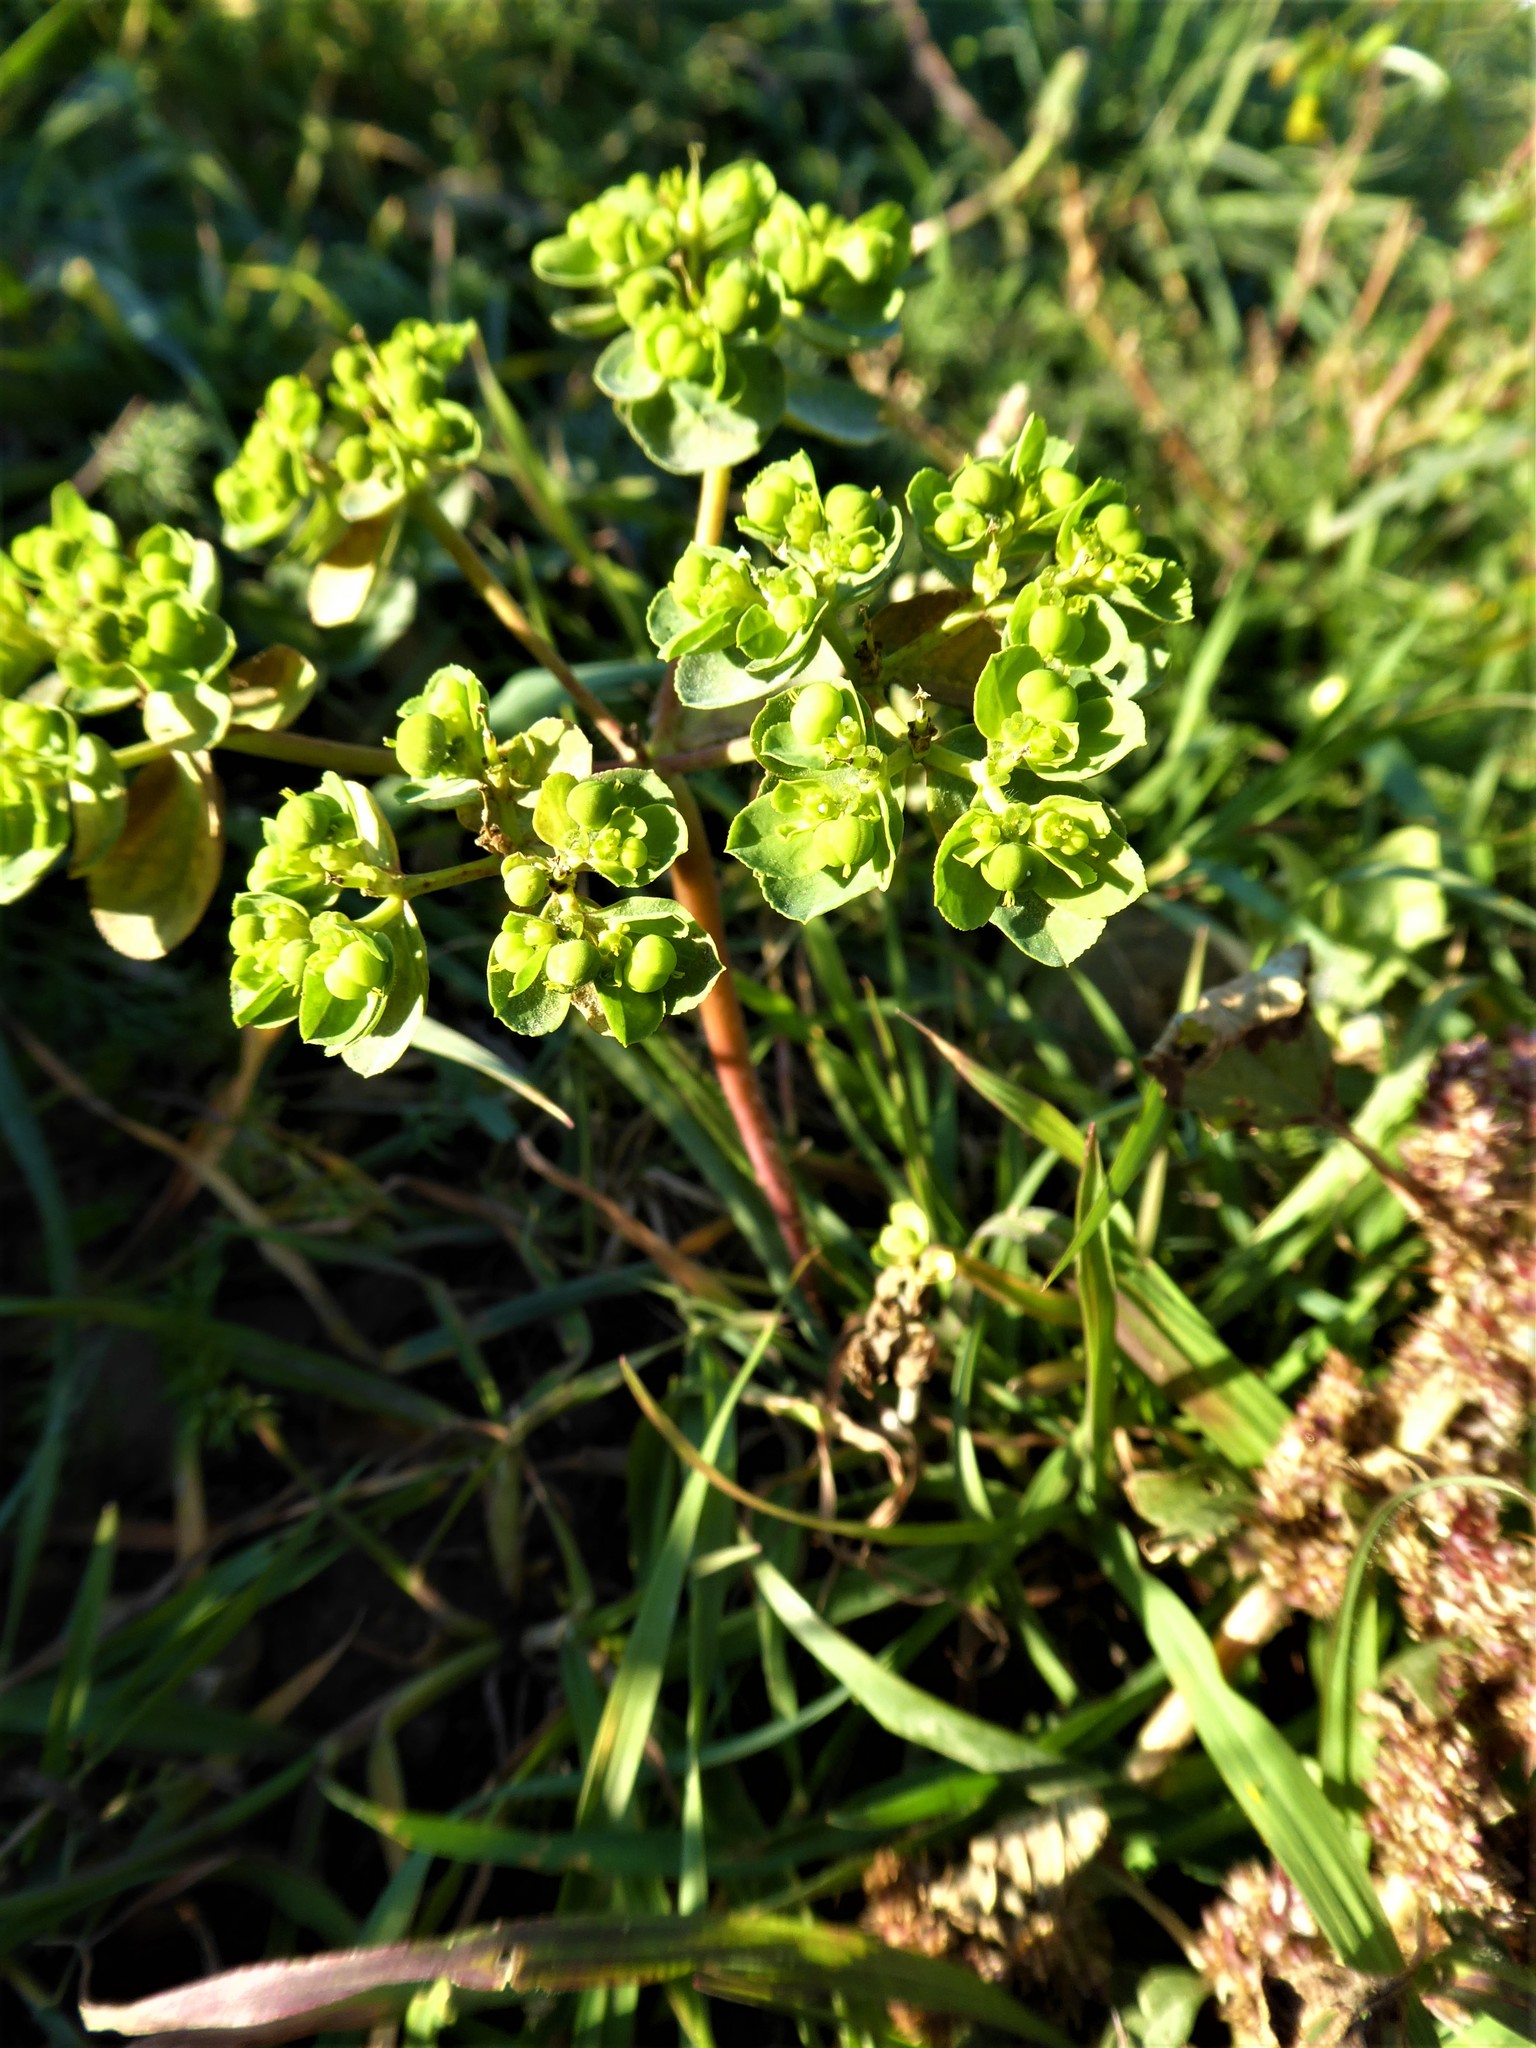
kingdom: Plantae
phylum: Tracheophyta
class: Magnoliopsida
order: Malpighiales
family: Euphorbiaceae
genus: Euphorbia
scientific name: Euphorbia helioscopia
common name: Sun spurge
